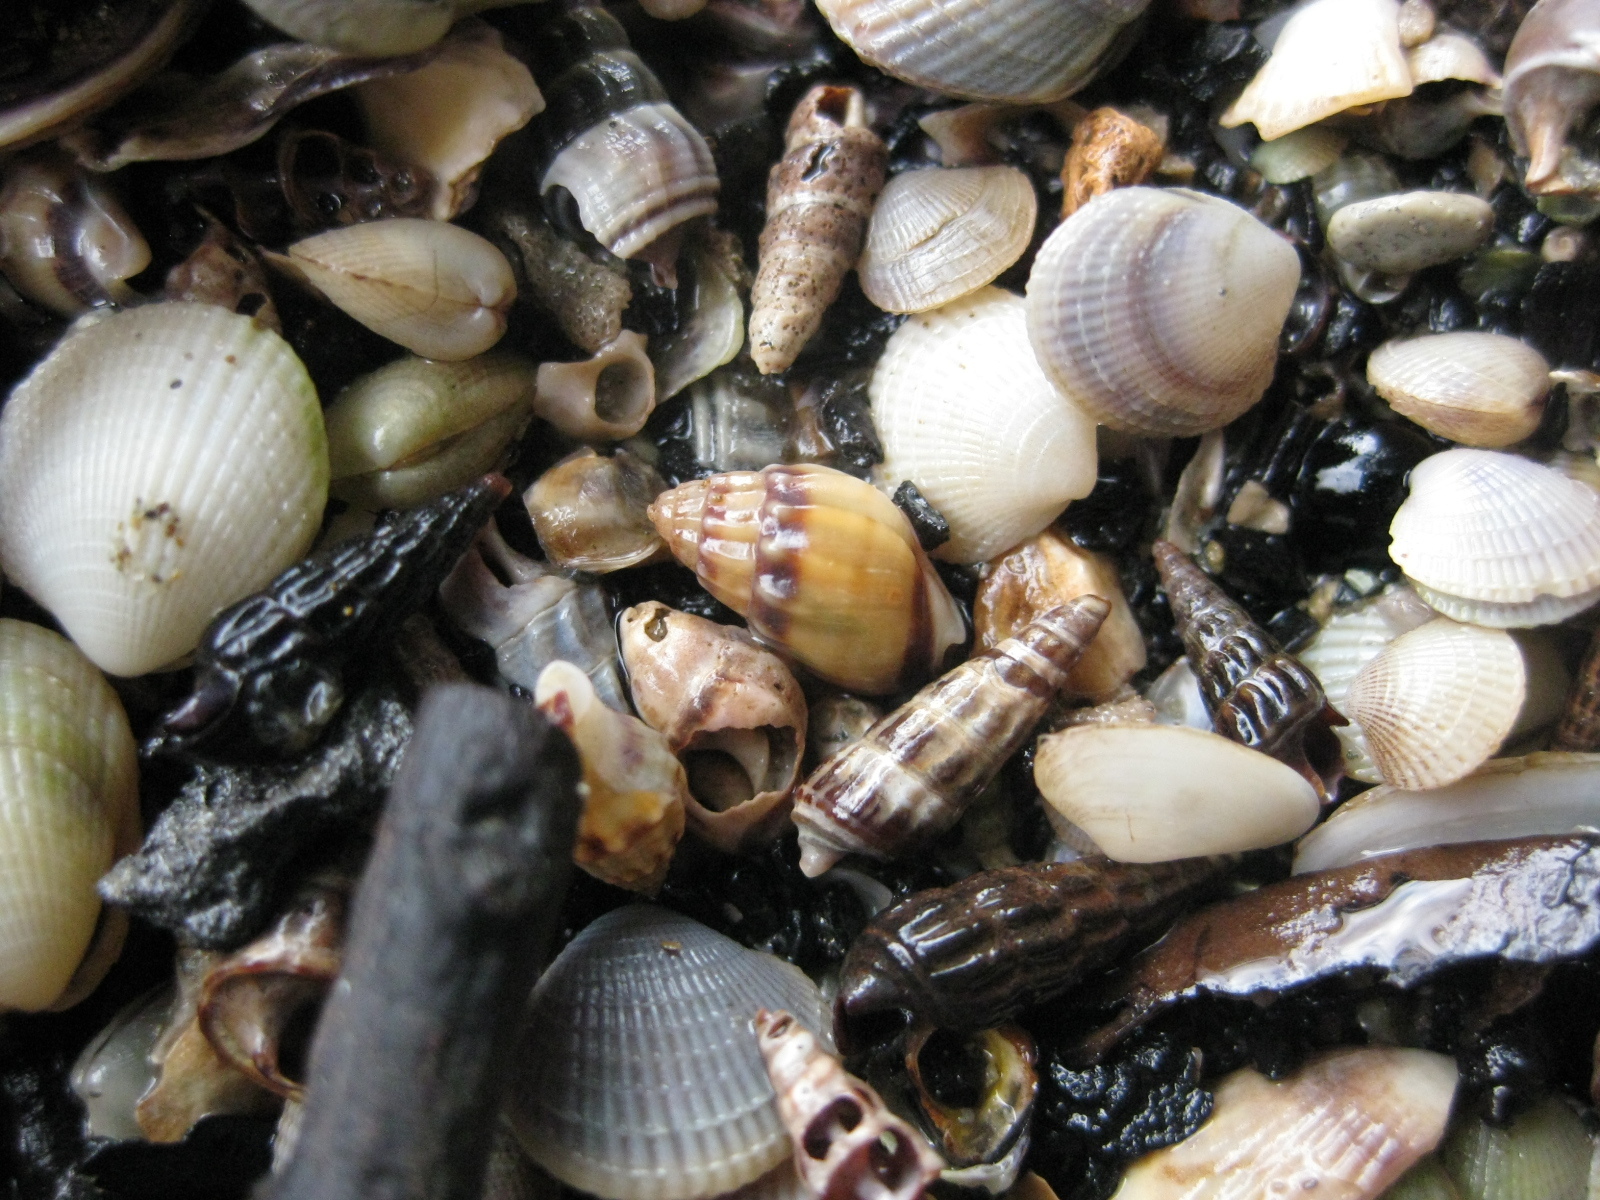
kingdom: Animalia
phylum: Mollusca
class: Bivalvia
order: Venerida
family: Veneridae
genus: Austrovenus
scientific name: Austrovenus stutchburyi
